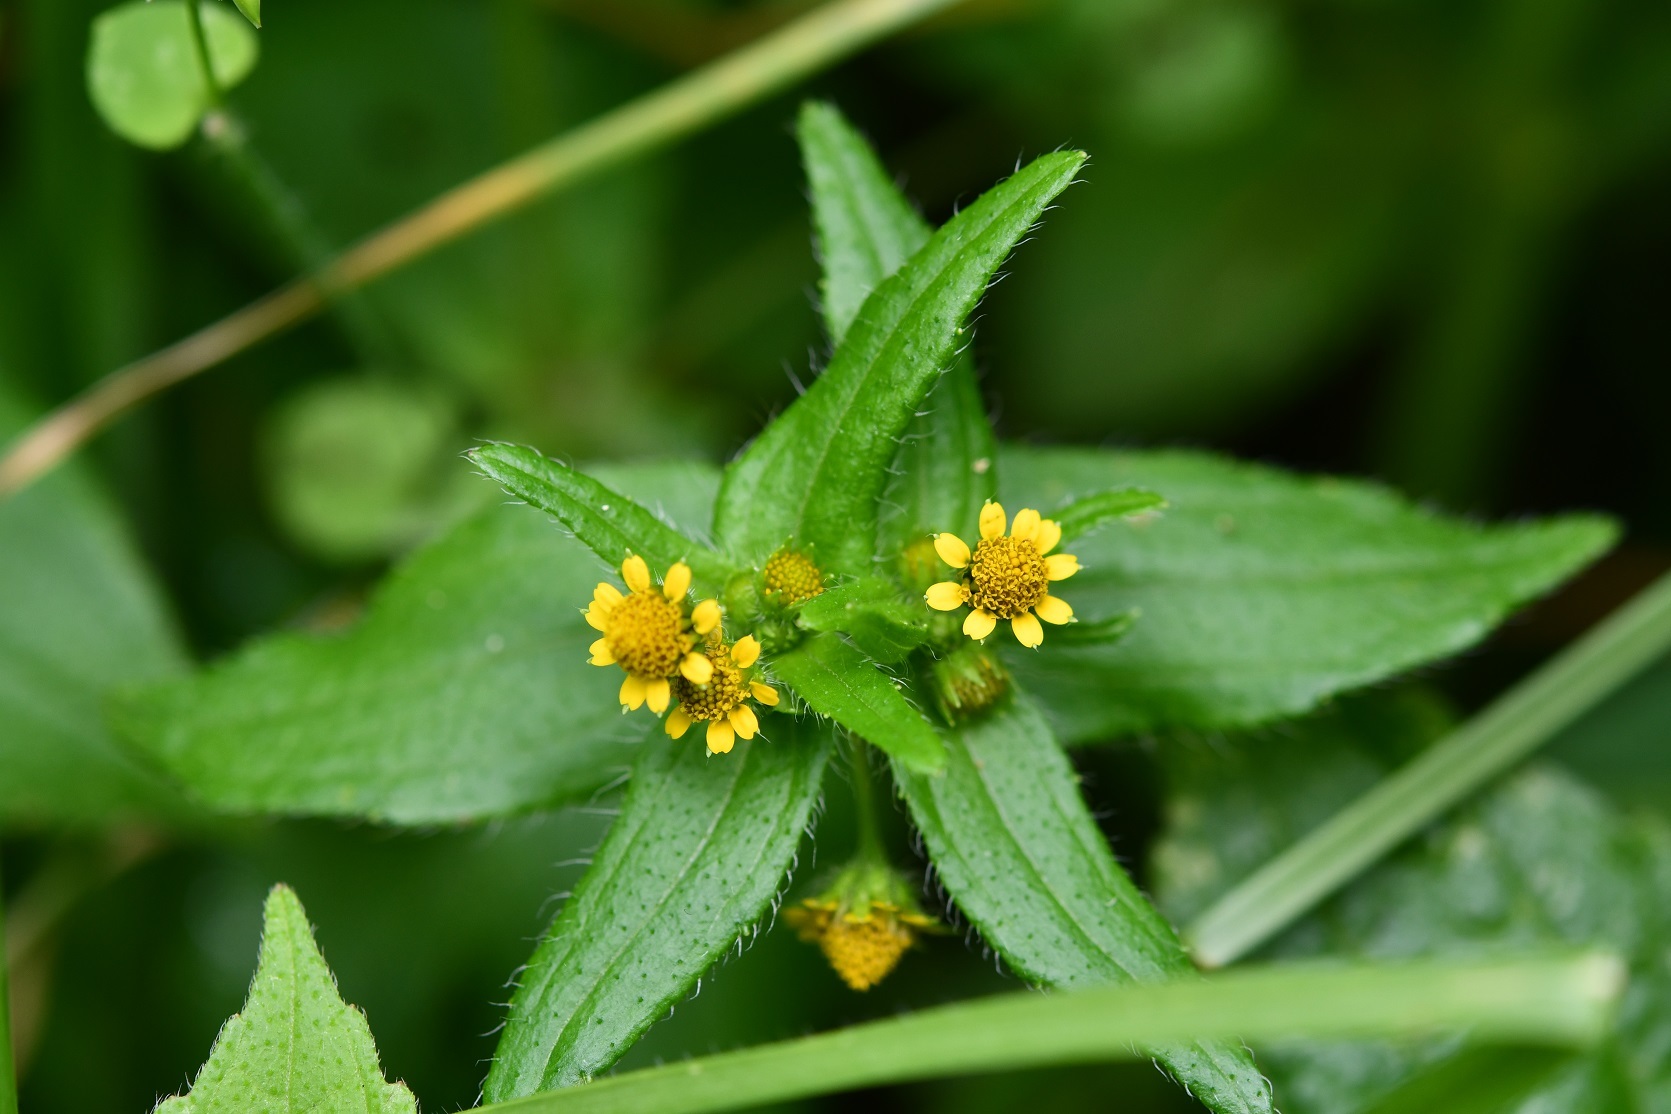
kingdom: Plantae
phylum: Tracheophyta
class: Magnoliopsida
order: Asterales
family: Asteraceae
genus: Jaegeria
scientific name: Jaegeria hirta
